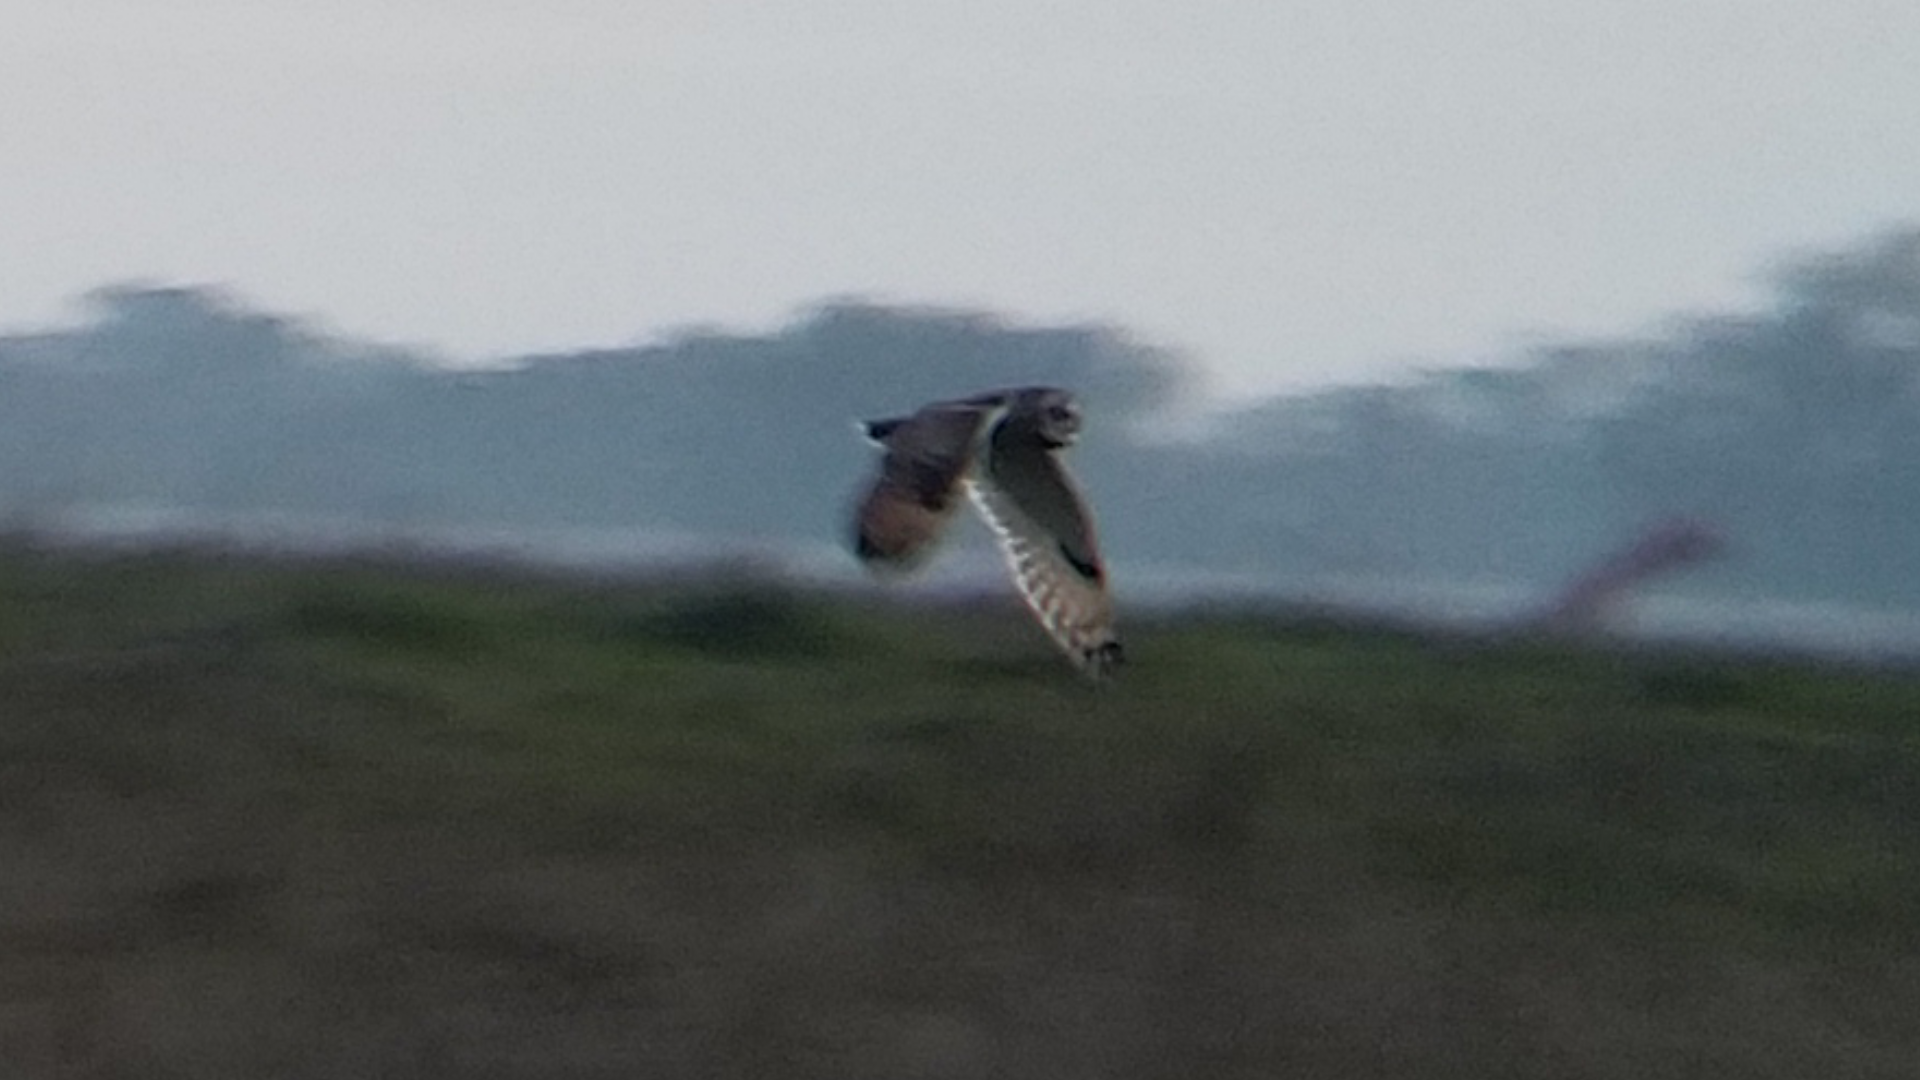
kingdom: Animalia
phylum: Chordata
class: Aves
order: Strigiformes
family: Strigidae
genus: Asio
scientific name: Asio flammeus
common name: Short-eared owl
